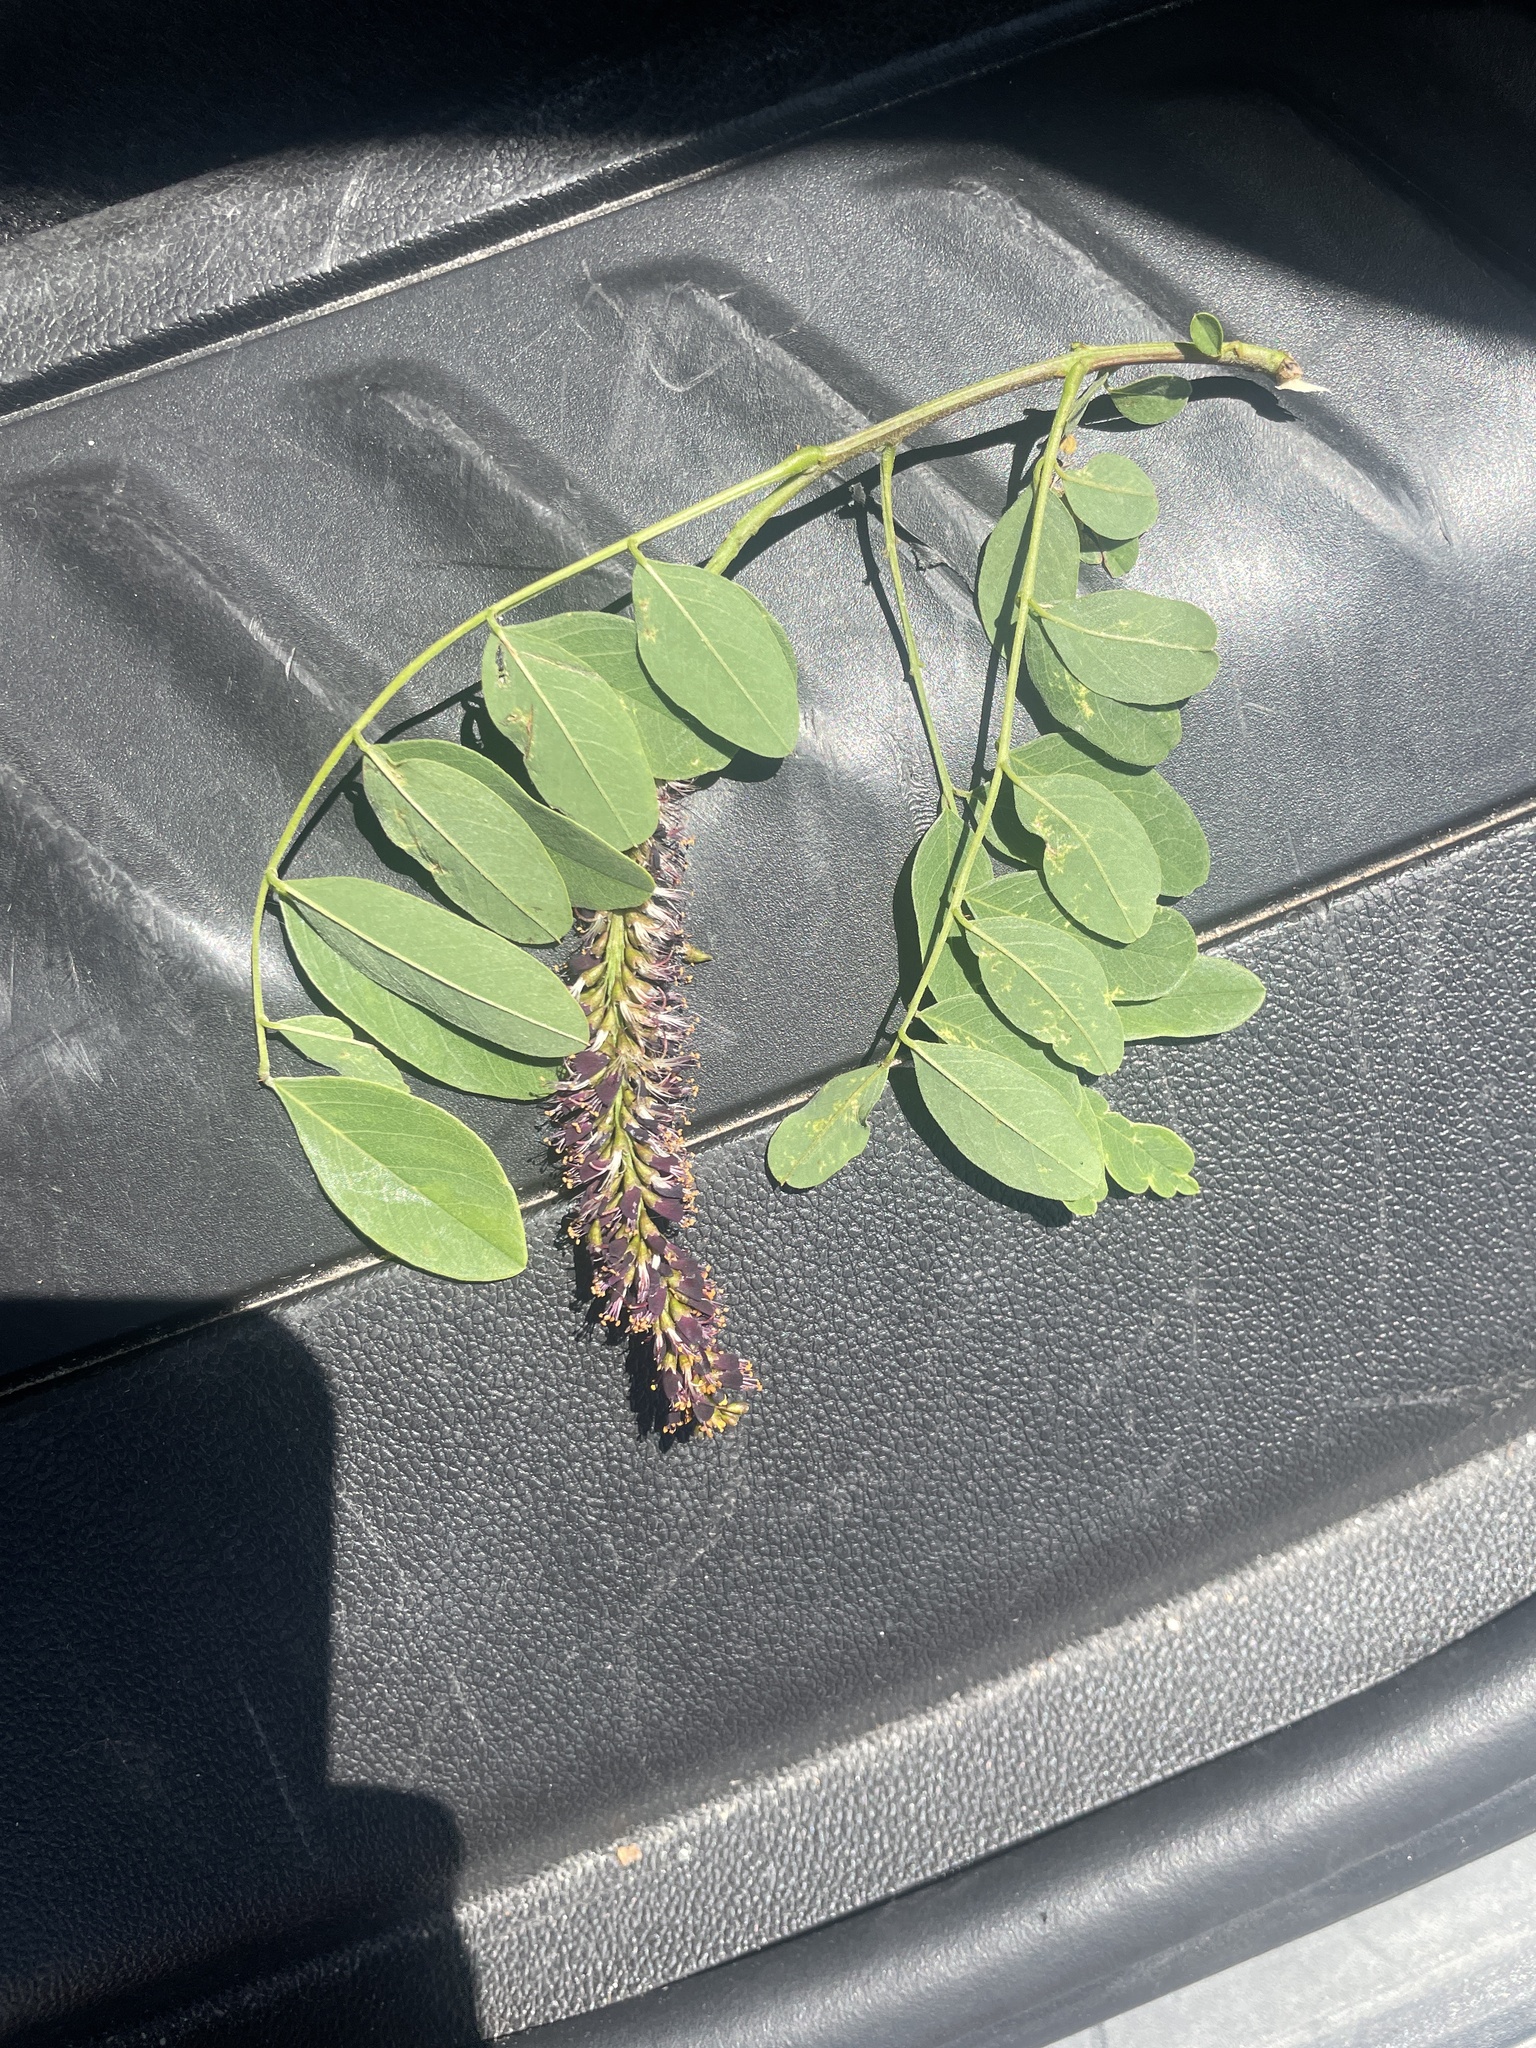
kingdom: Plantae
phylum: Tracheophyta
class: Magnoliopsida
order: Fabales
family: Fabaceae
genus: Amorpha
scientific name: Amorpha fruticosa
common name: False indigo
